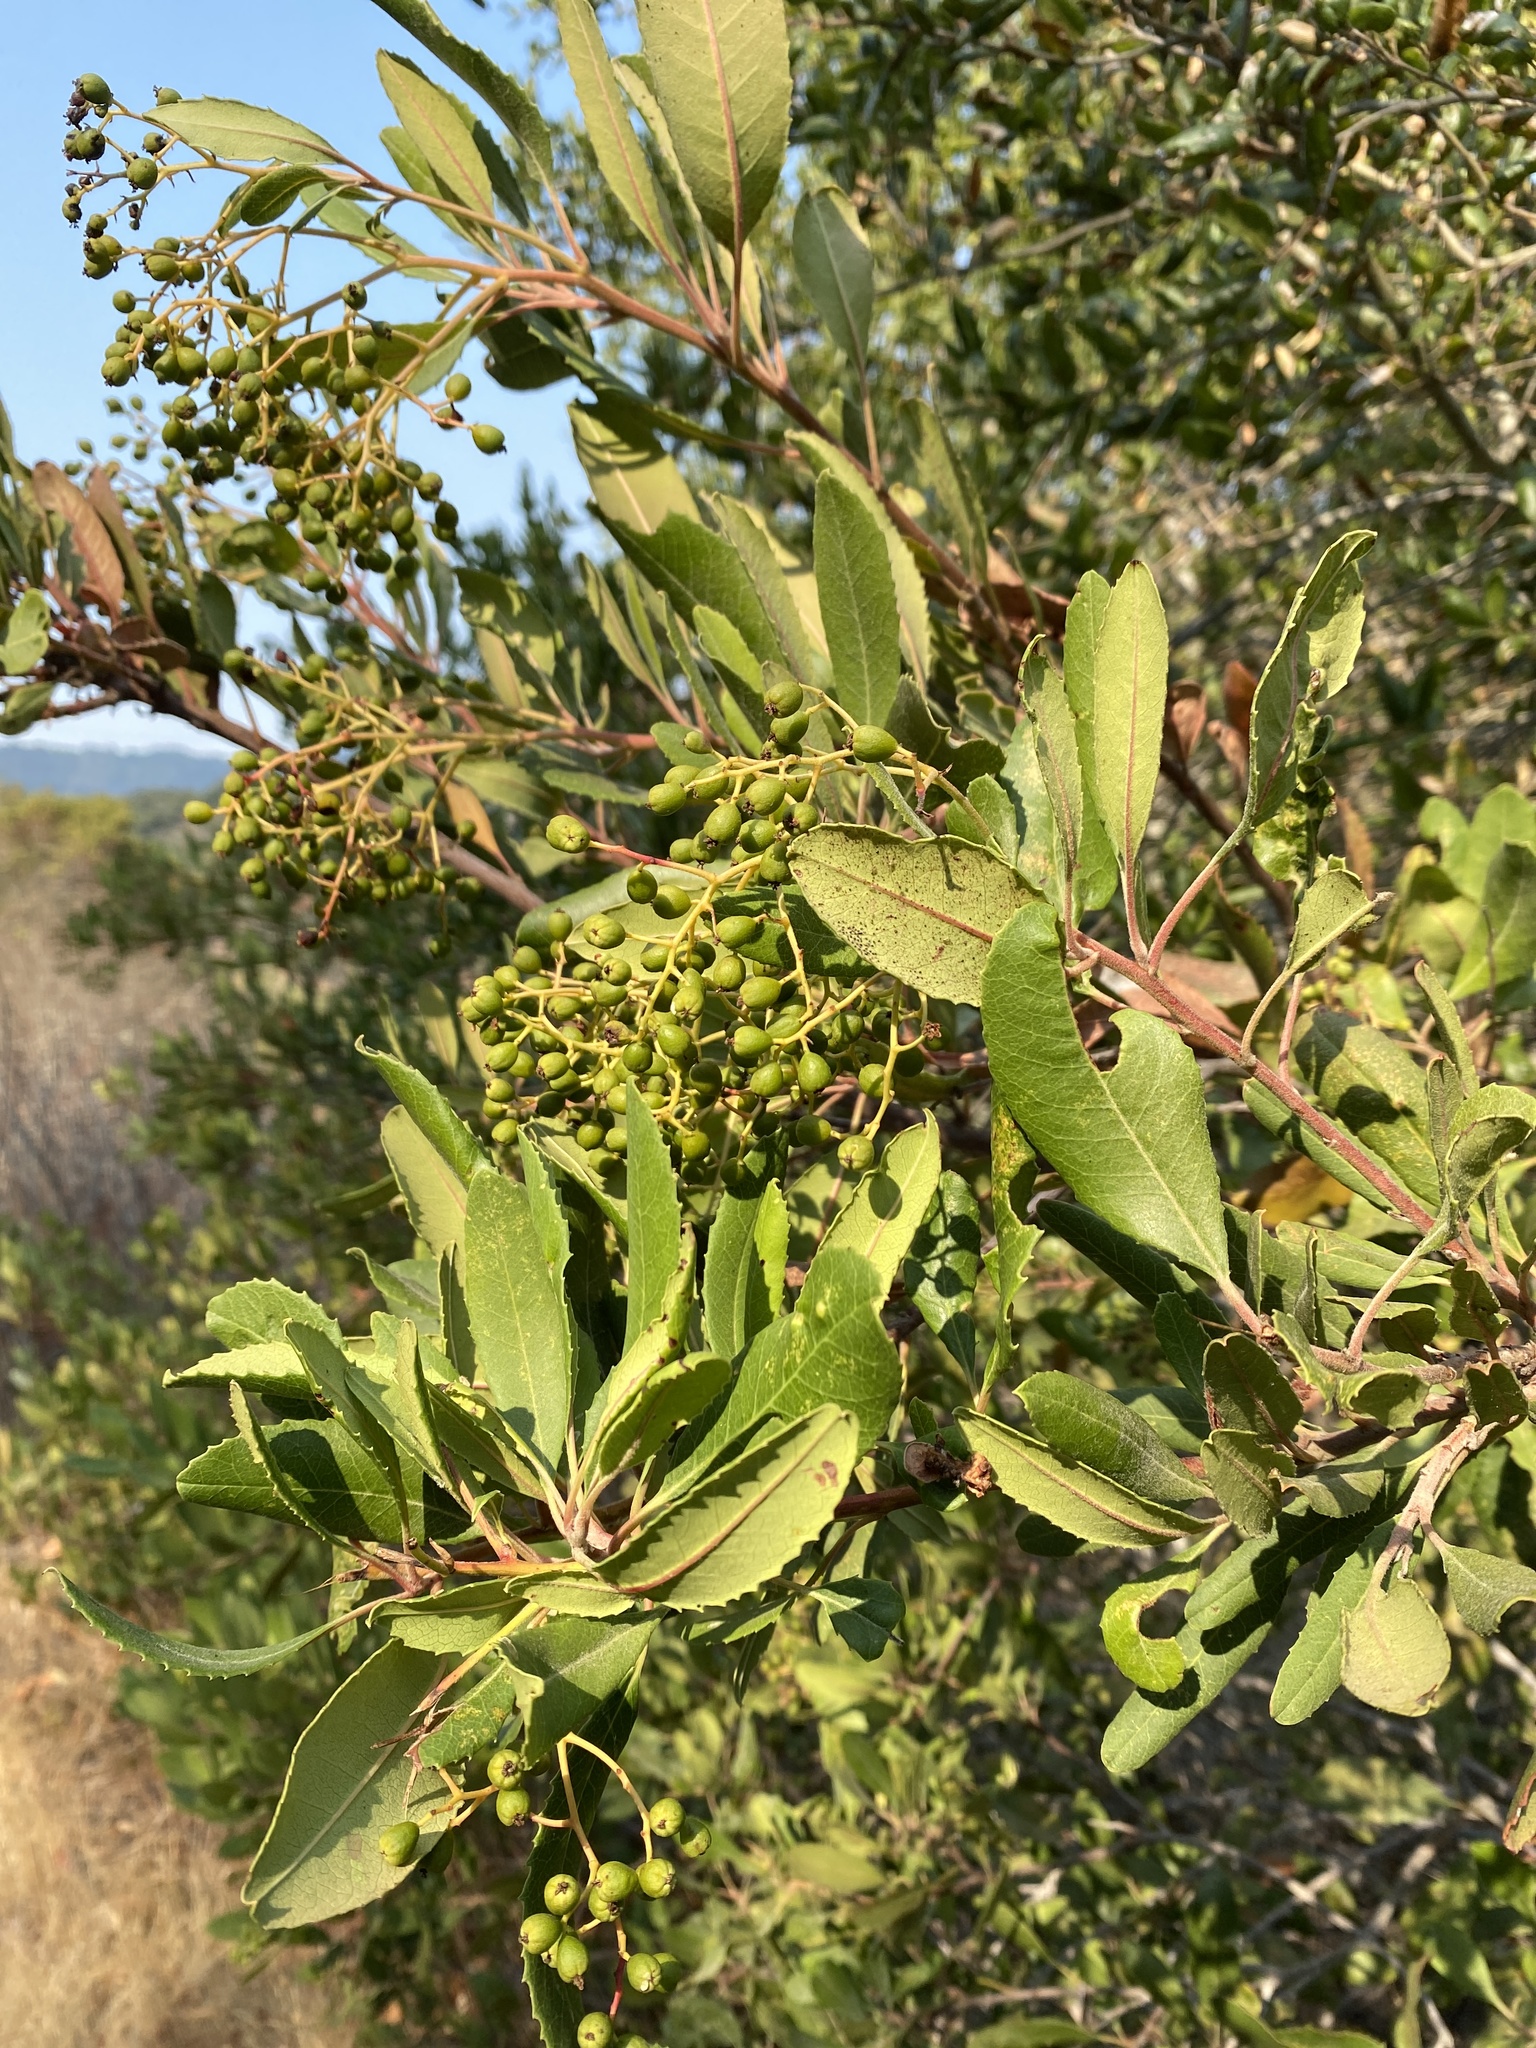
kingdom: Plantae
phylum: Tracheophyta
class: Magnoliopsida
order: Rosales
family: Rosaceae
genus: Heteromeles
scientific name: Heteromeles arbutifolia
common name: California-holly
